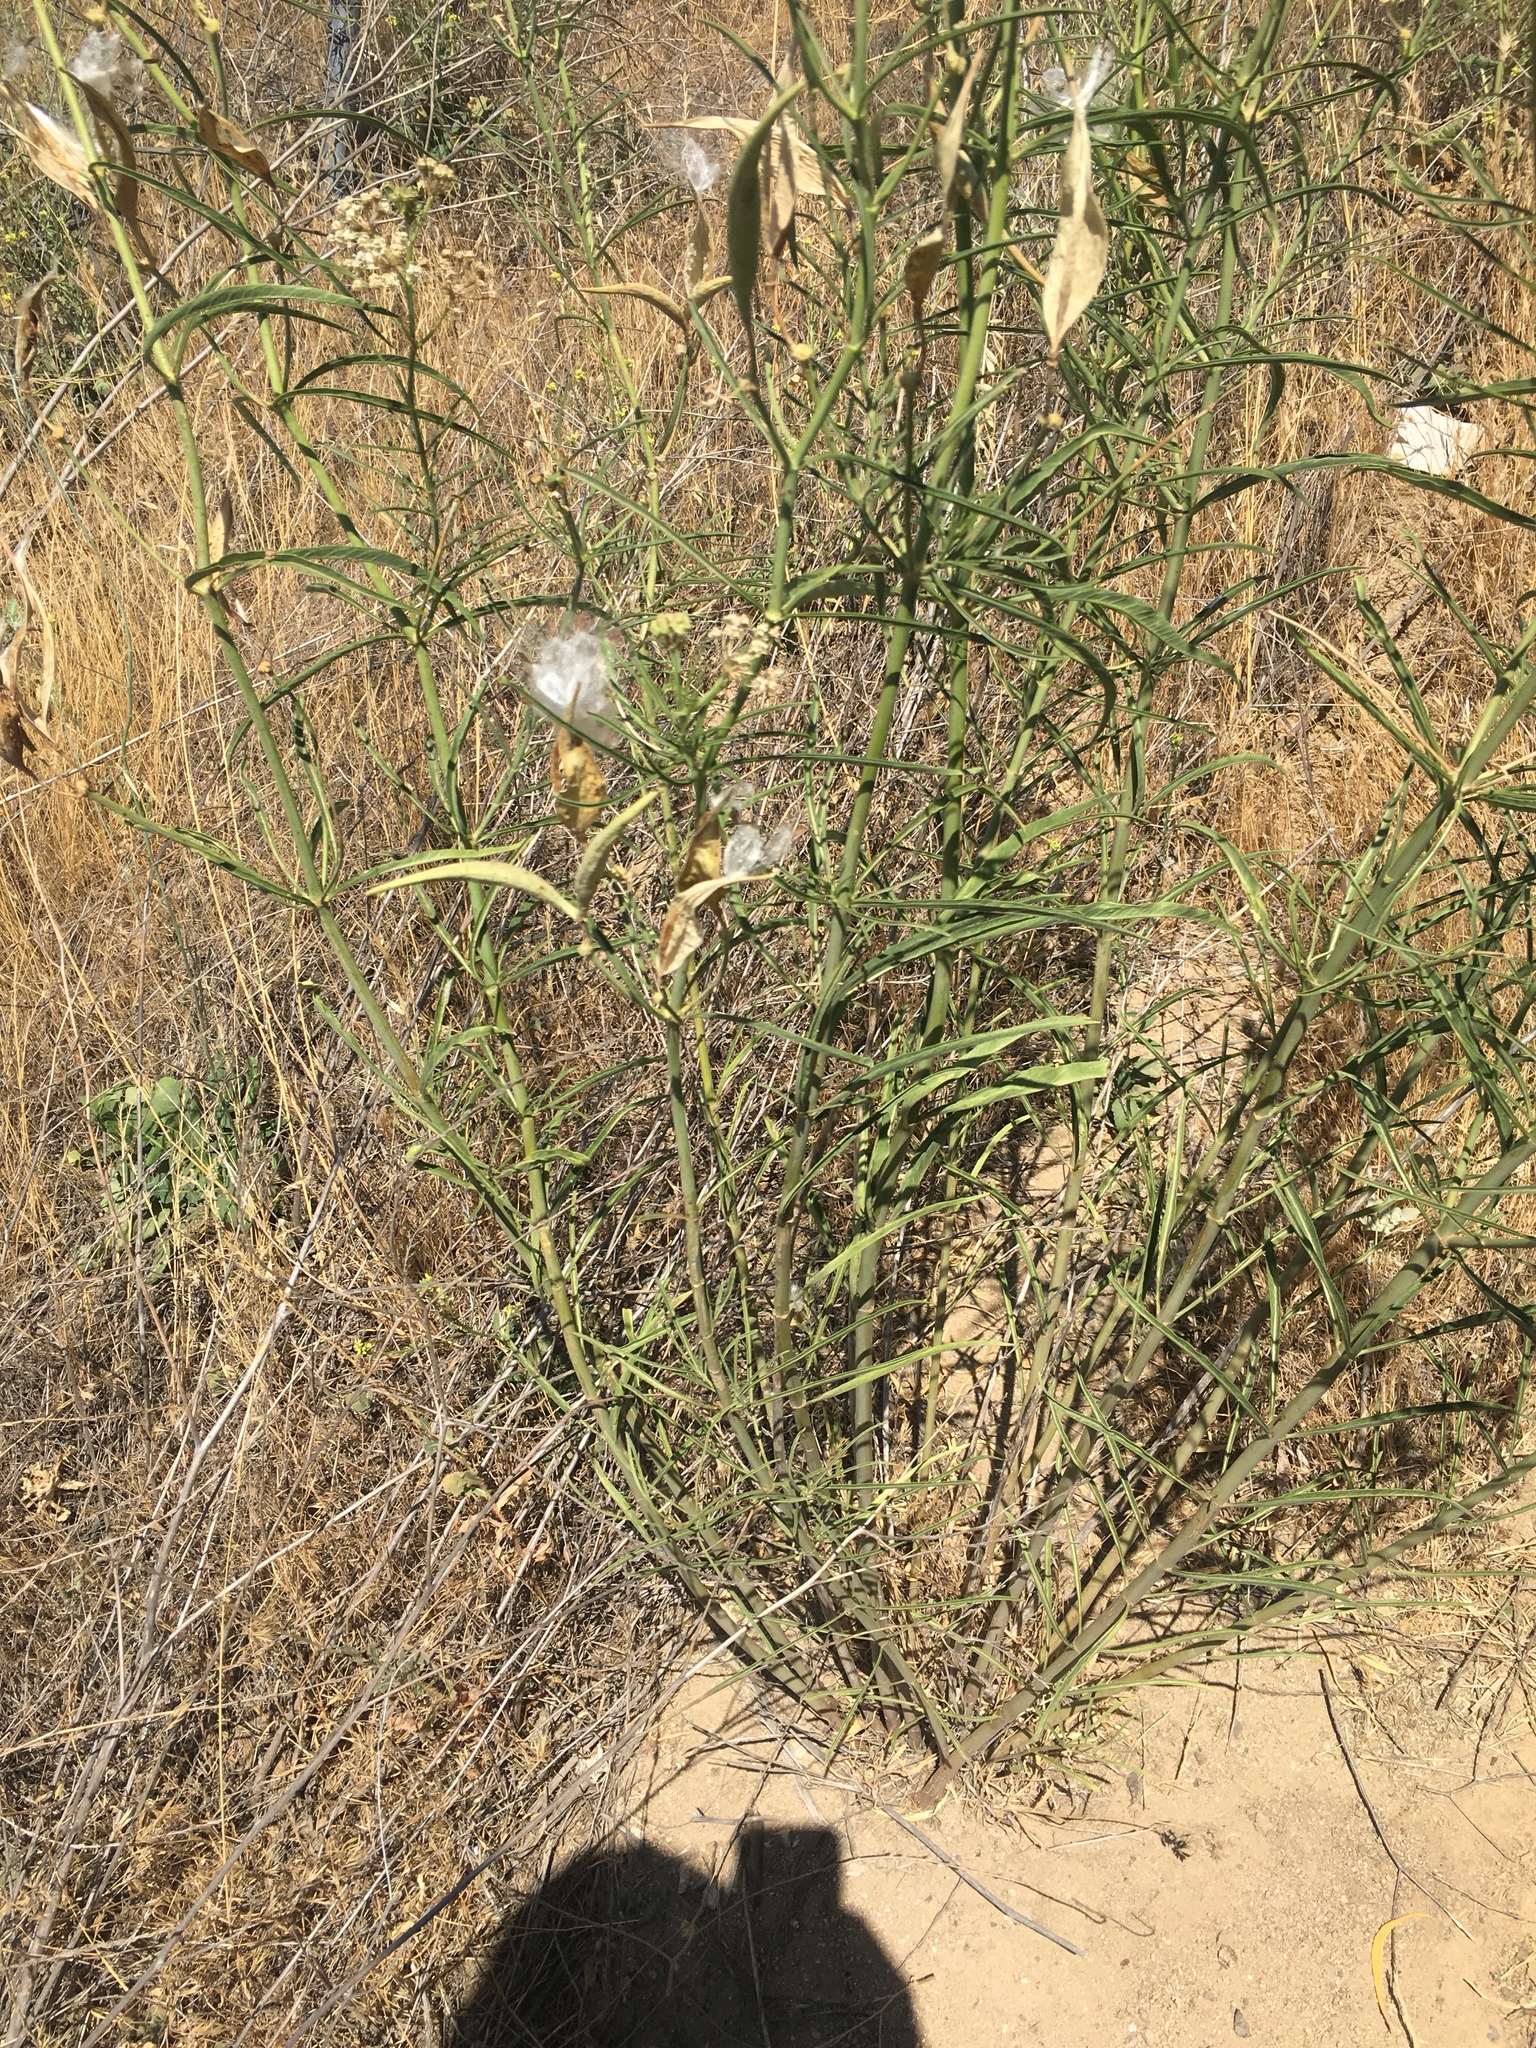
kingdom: Plantae
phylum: Tracheophyta
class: Magnoliopsida
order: Gentianales
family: Apocynaceae
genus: Asclepias
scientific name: Asclepias fascicularis
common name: Mexican milkweed
